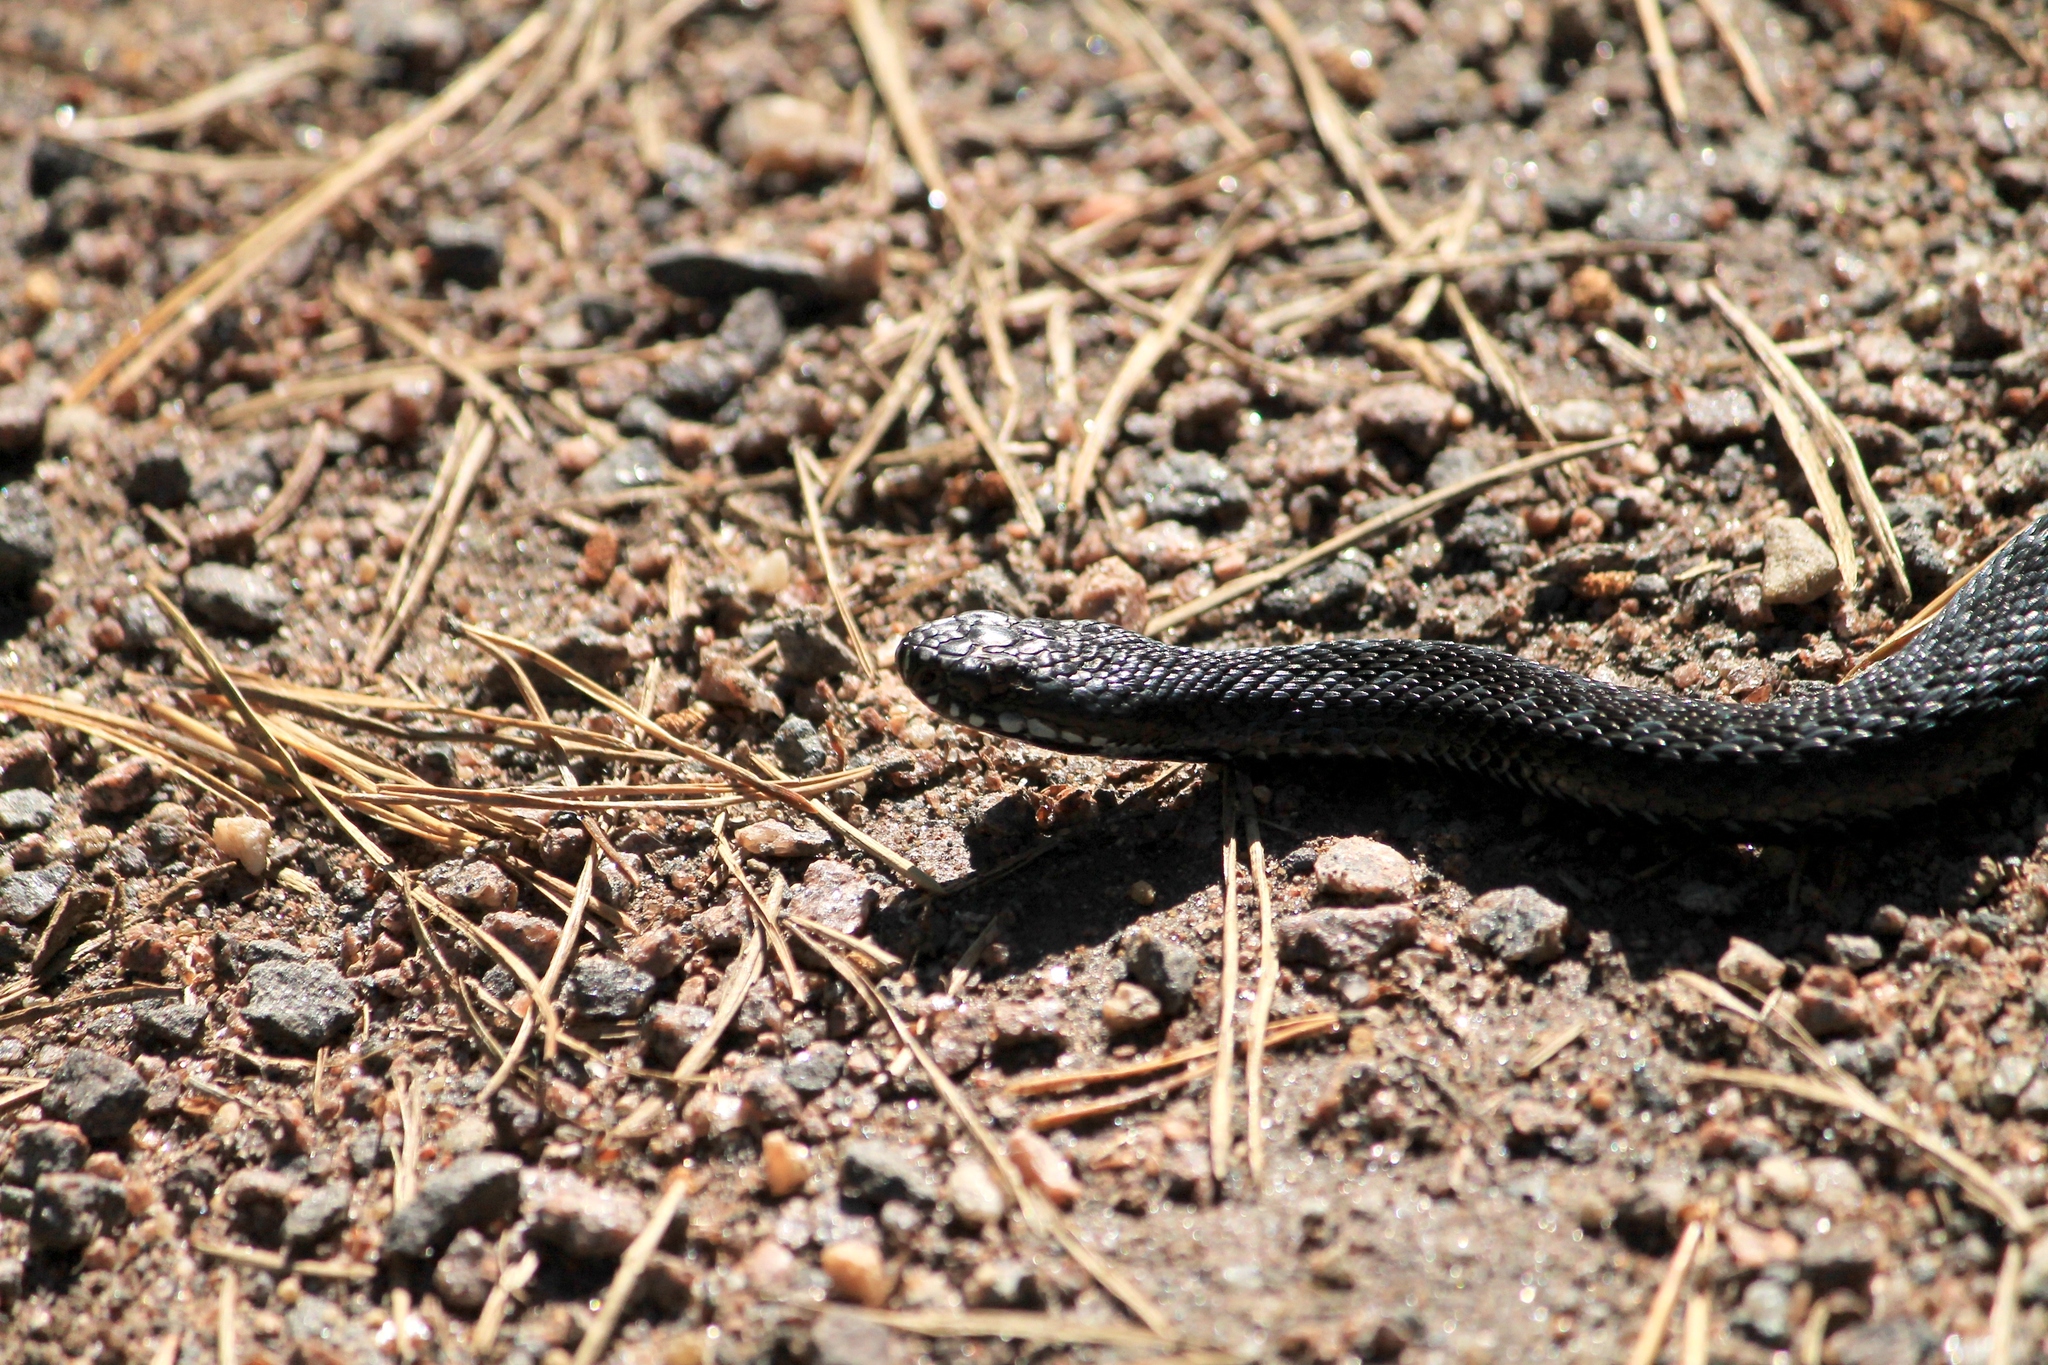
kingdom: Animalia
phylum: Chordata
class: Squamata
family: Viperidae
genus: Vipera
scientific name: Vipera berus
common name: Adder
